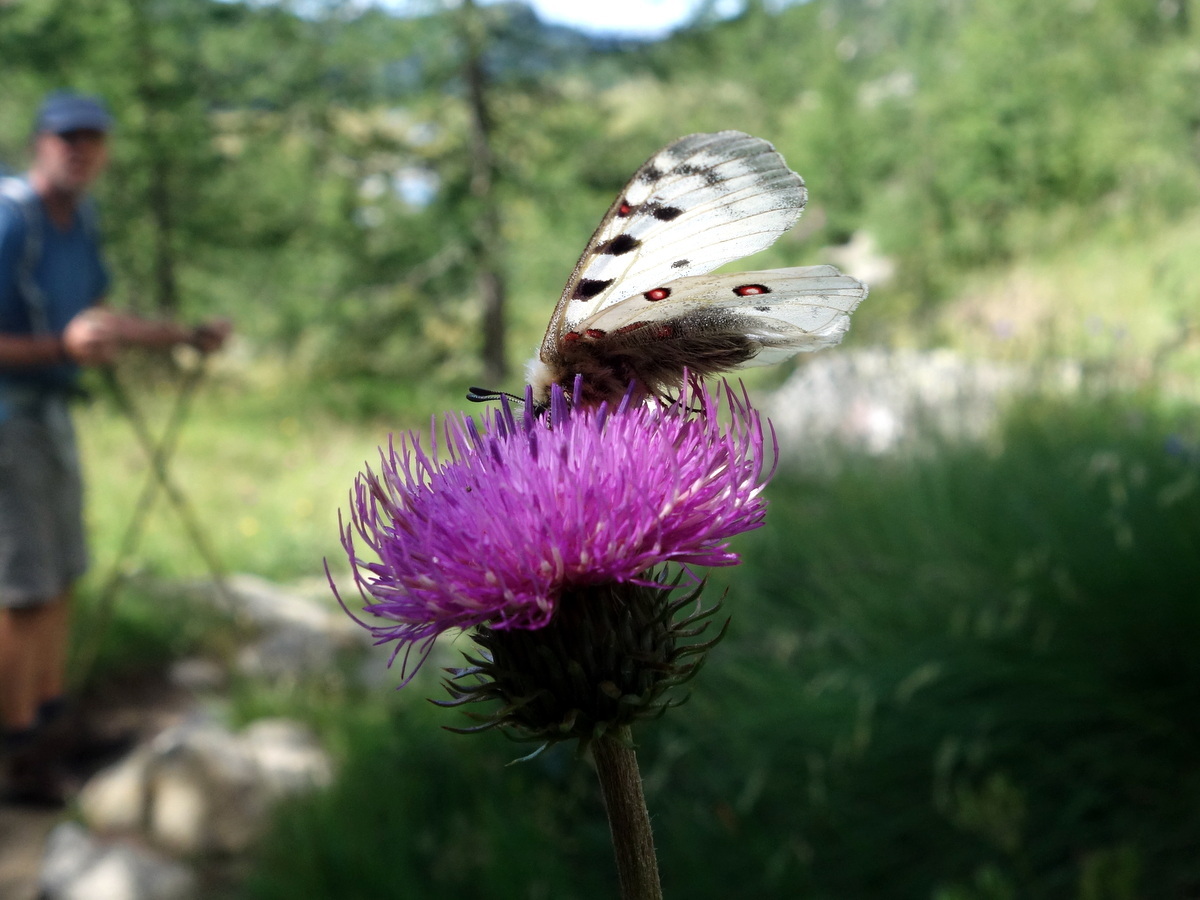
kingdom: Animalia
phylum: Arthropoda
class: Insecta
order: Lepidoptera
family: Papilionidae
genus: Parnassius
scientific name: Parnassius phoebus
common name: Small apollo
